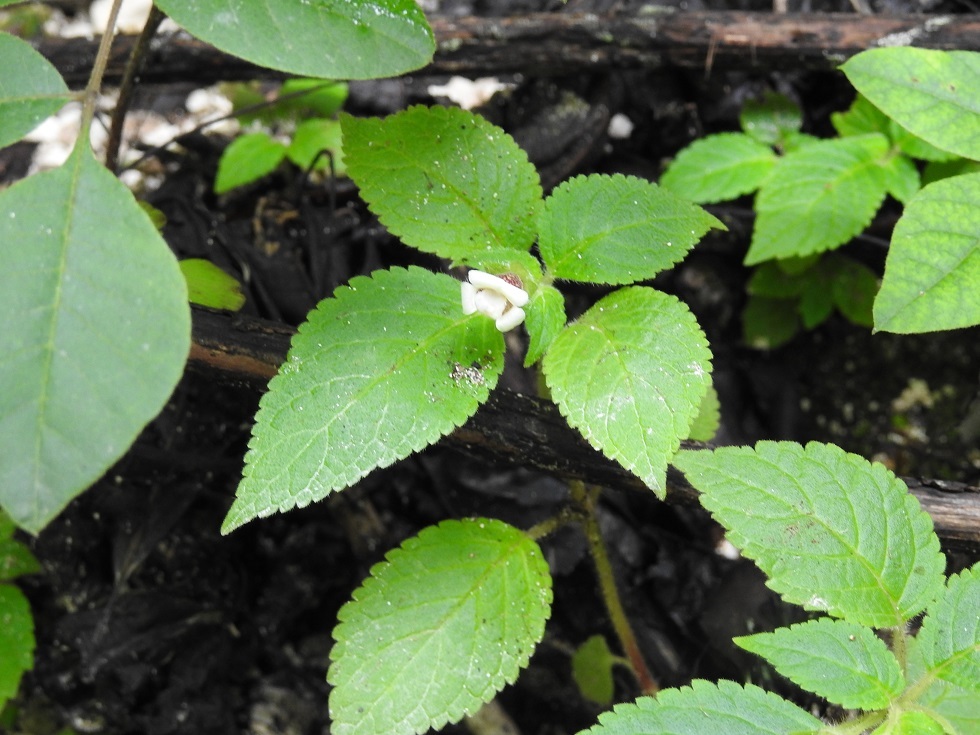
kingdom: Plantae
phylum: Tracheophyta
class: Magnoliopsida
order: Lamiales
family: Gesneriaceae
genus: Achimenes
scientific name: Achimenes misera
